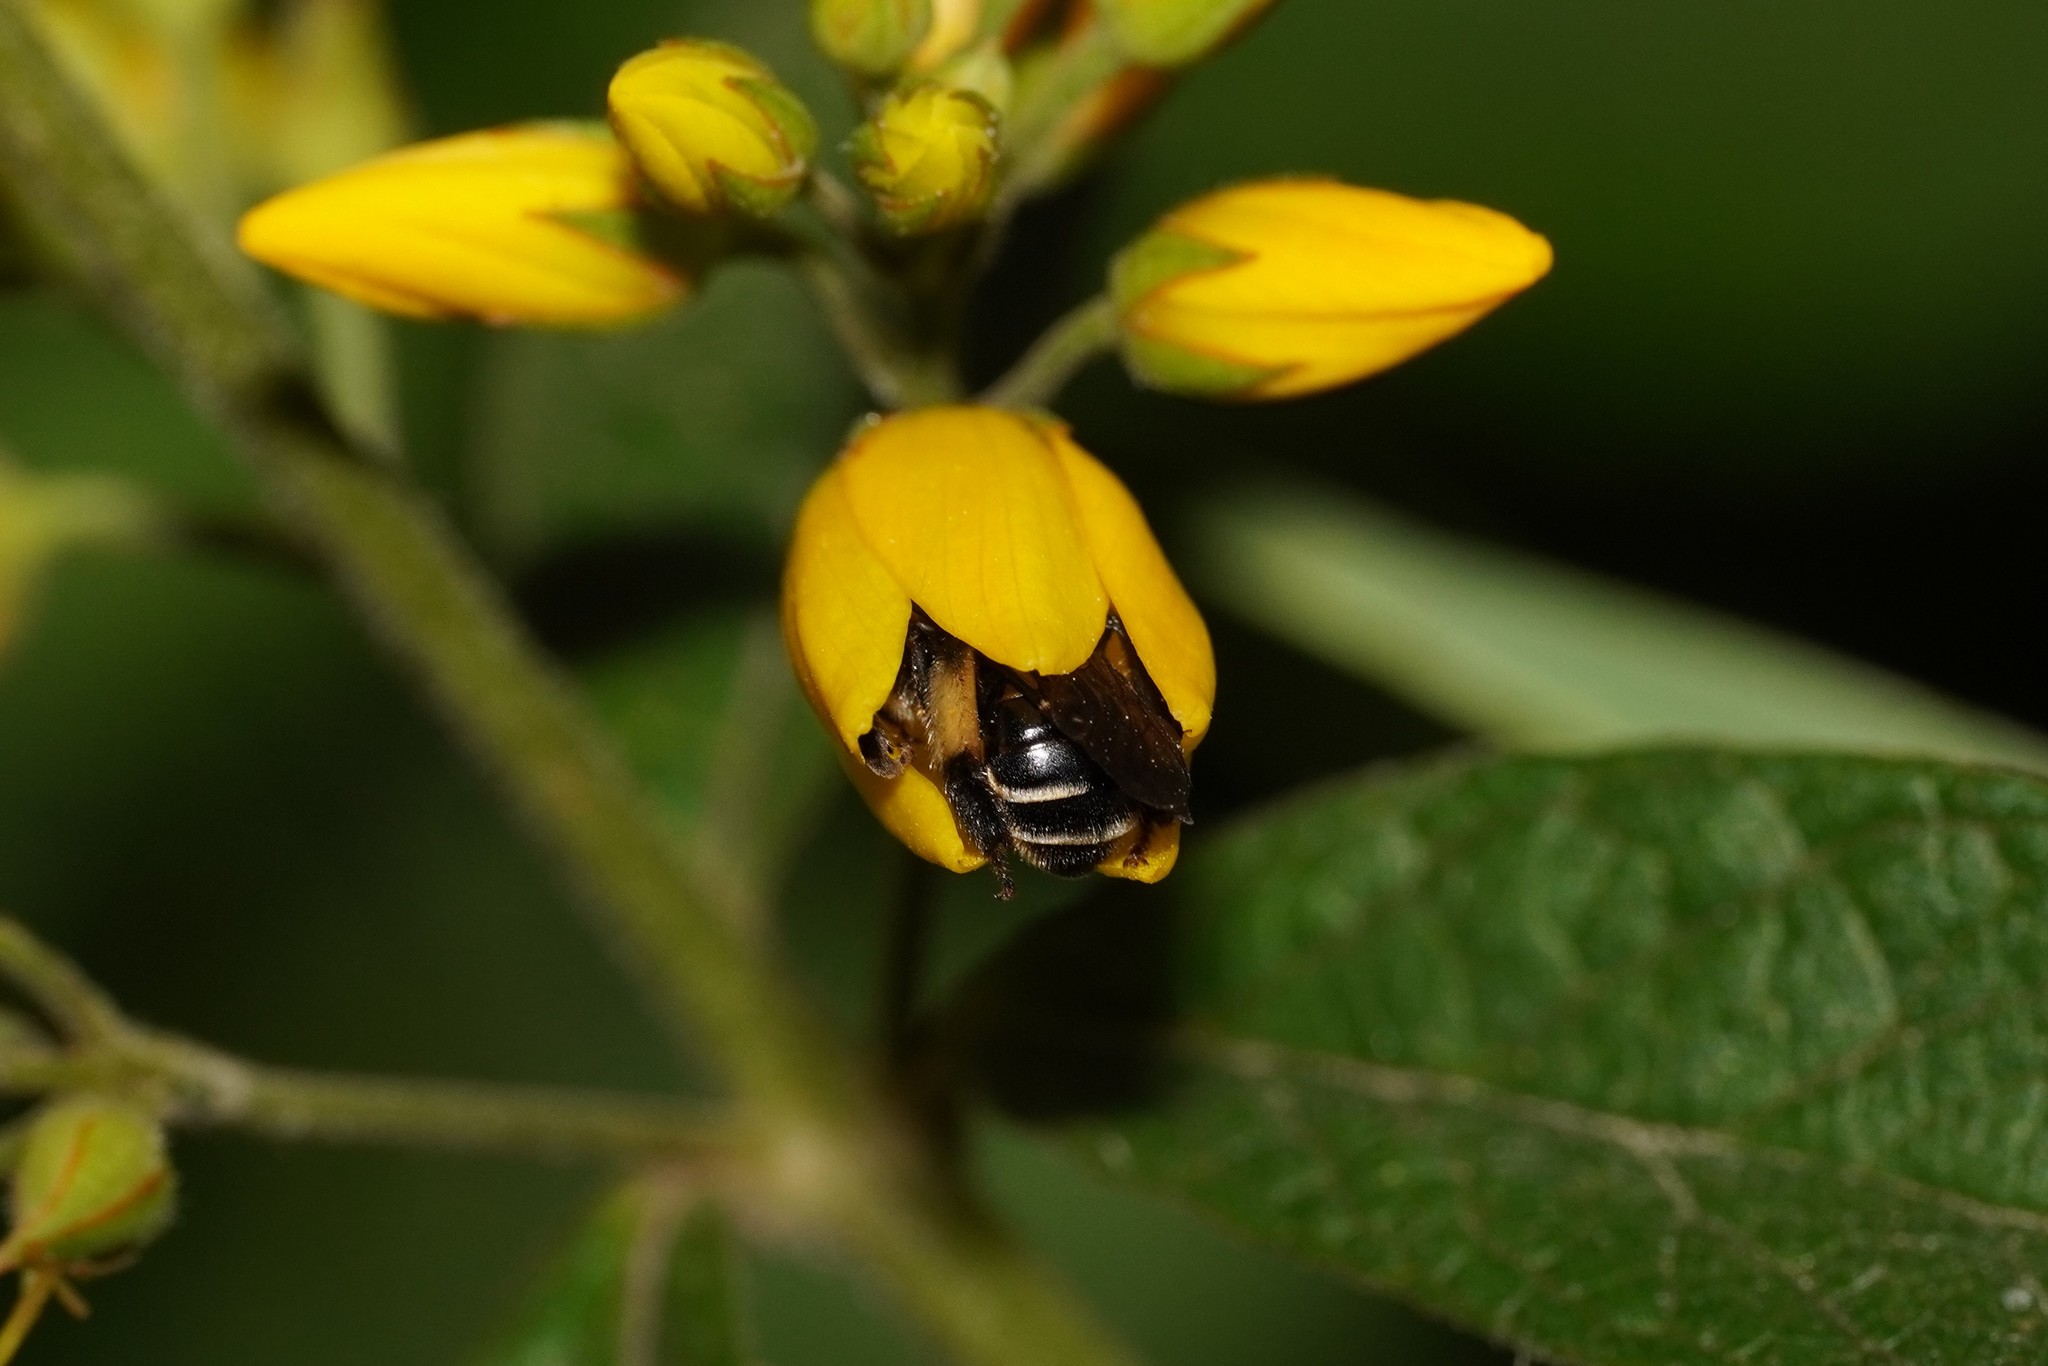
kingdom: Animalia
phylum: Arthropoda
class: Insecta
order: Hymenoptera
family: Melittidae
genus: Macropis
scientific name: Macropis europaea
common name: Yellow loosestrife bee
